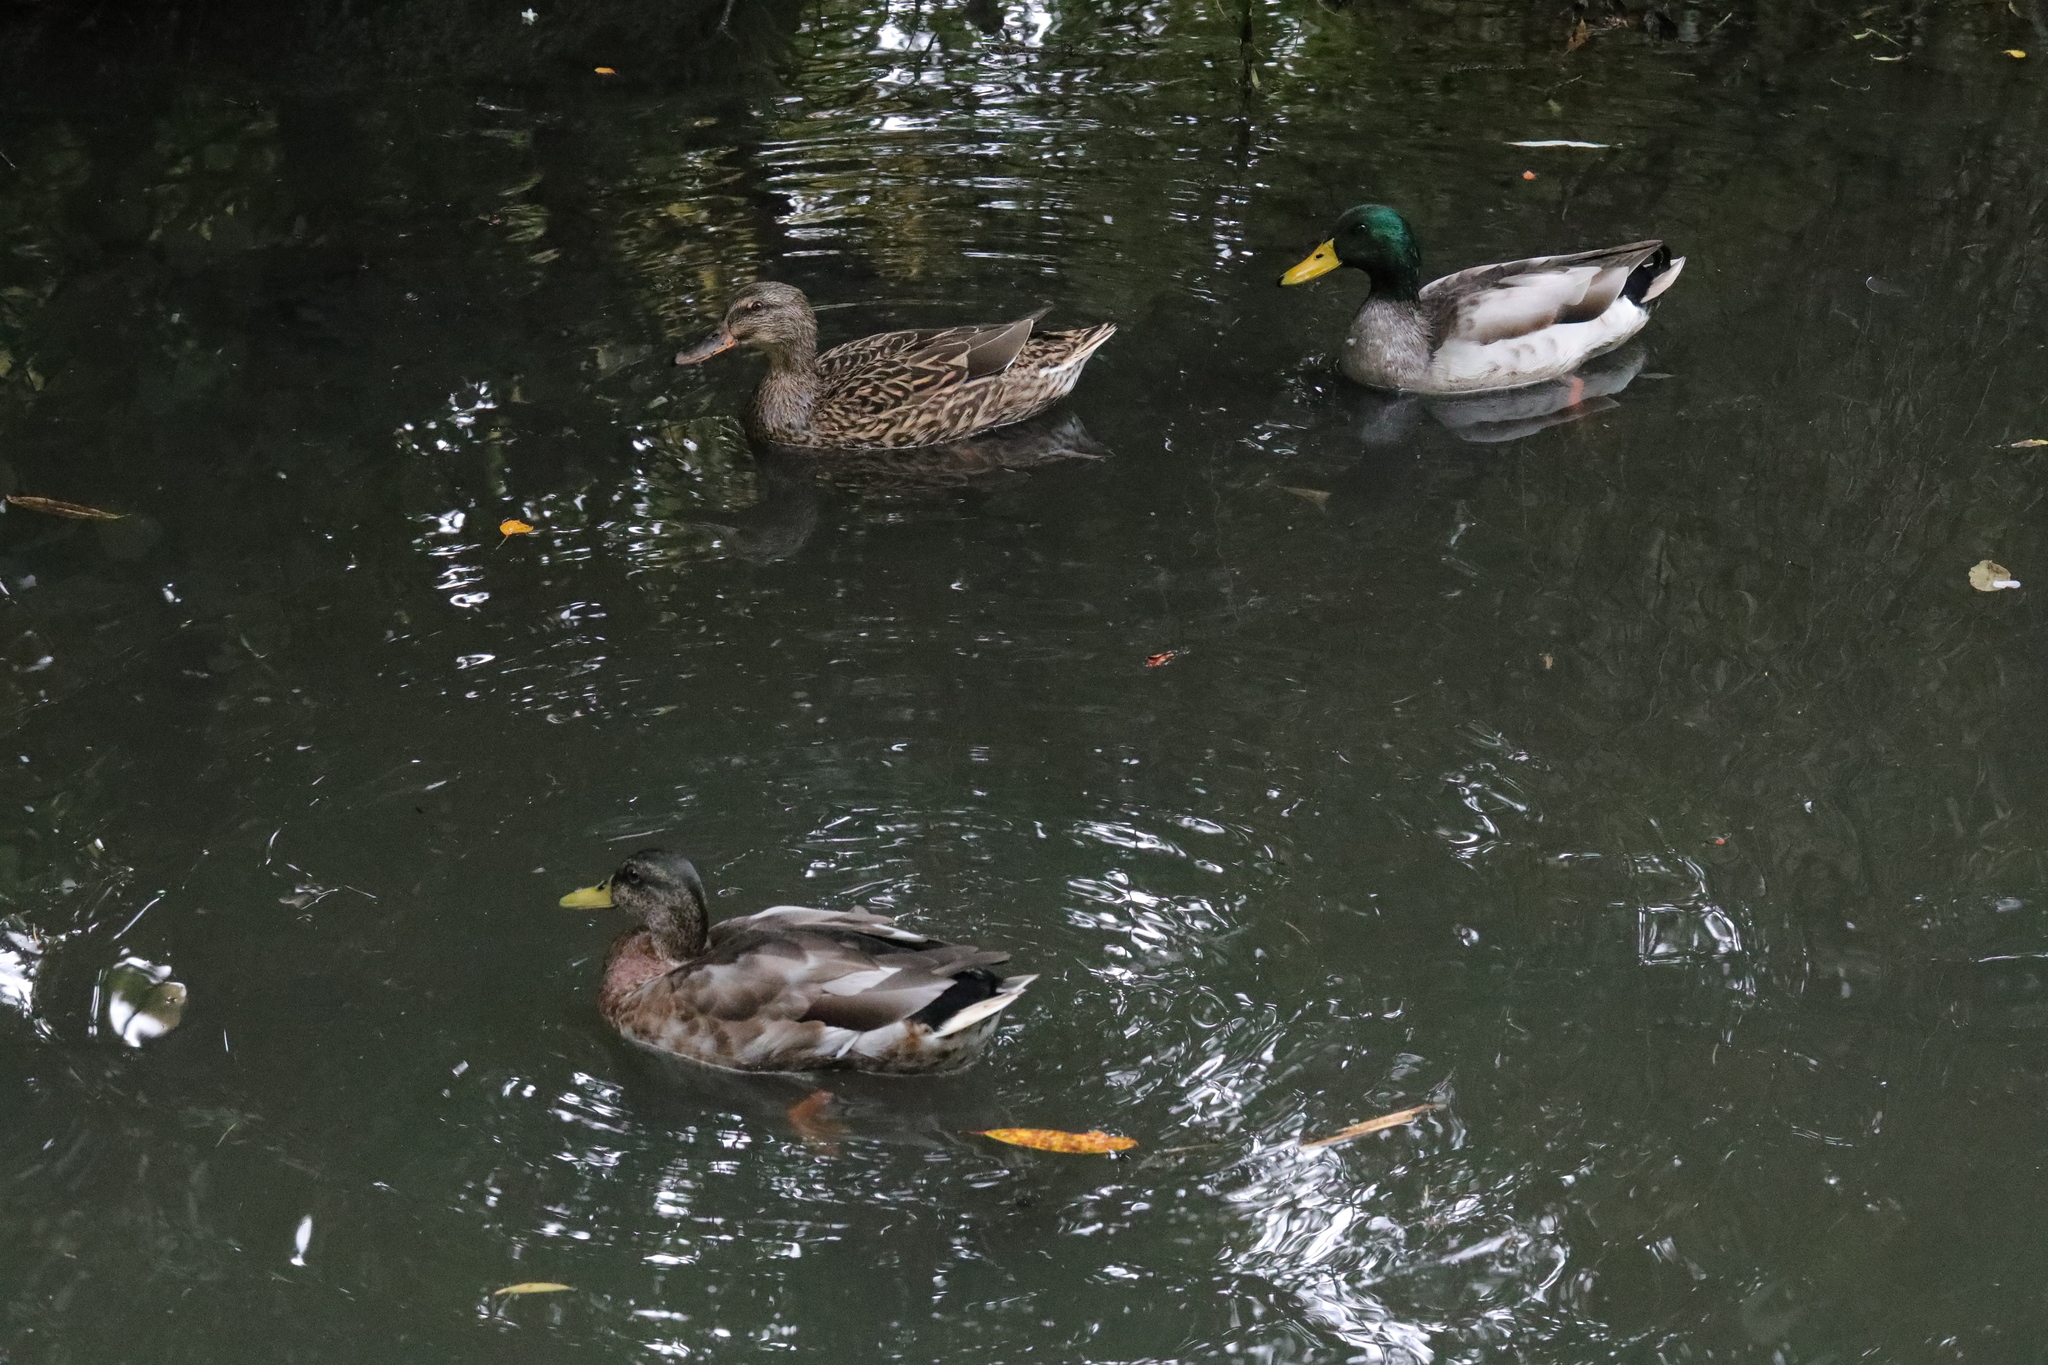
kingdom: Animalia
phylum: Chordata
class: Aves
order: Anseriformes
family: Anatidae
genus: Anas
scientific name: Anas platyrhynchos
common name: Mallard
